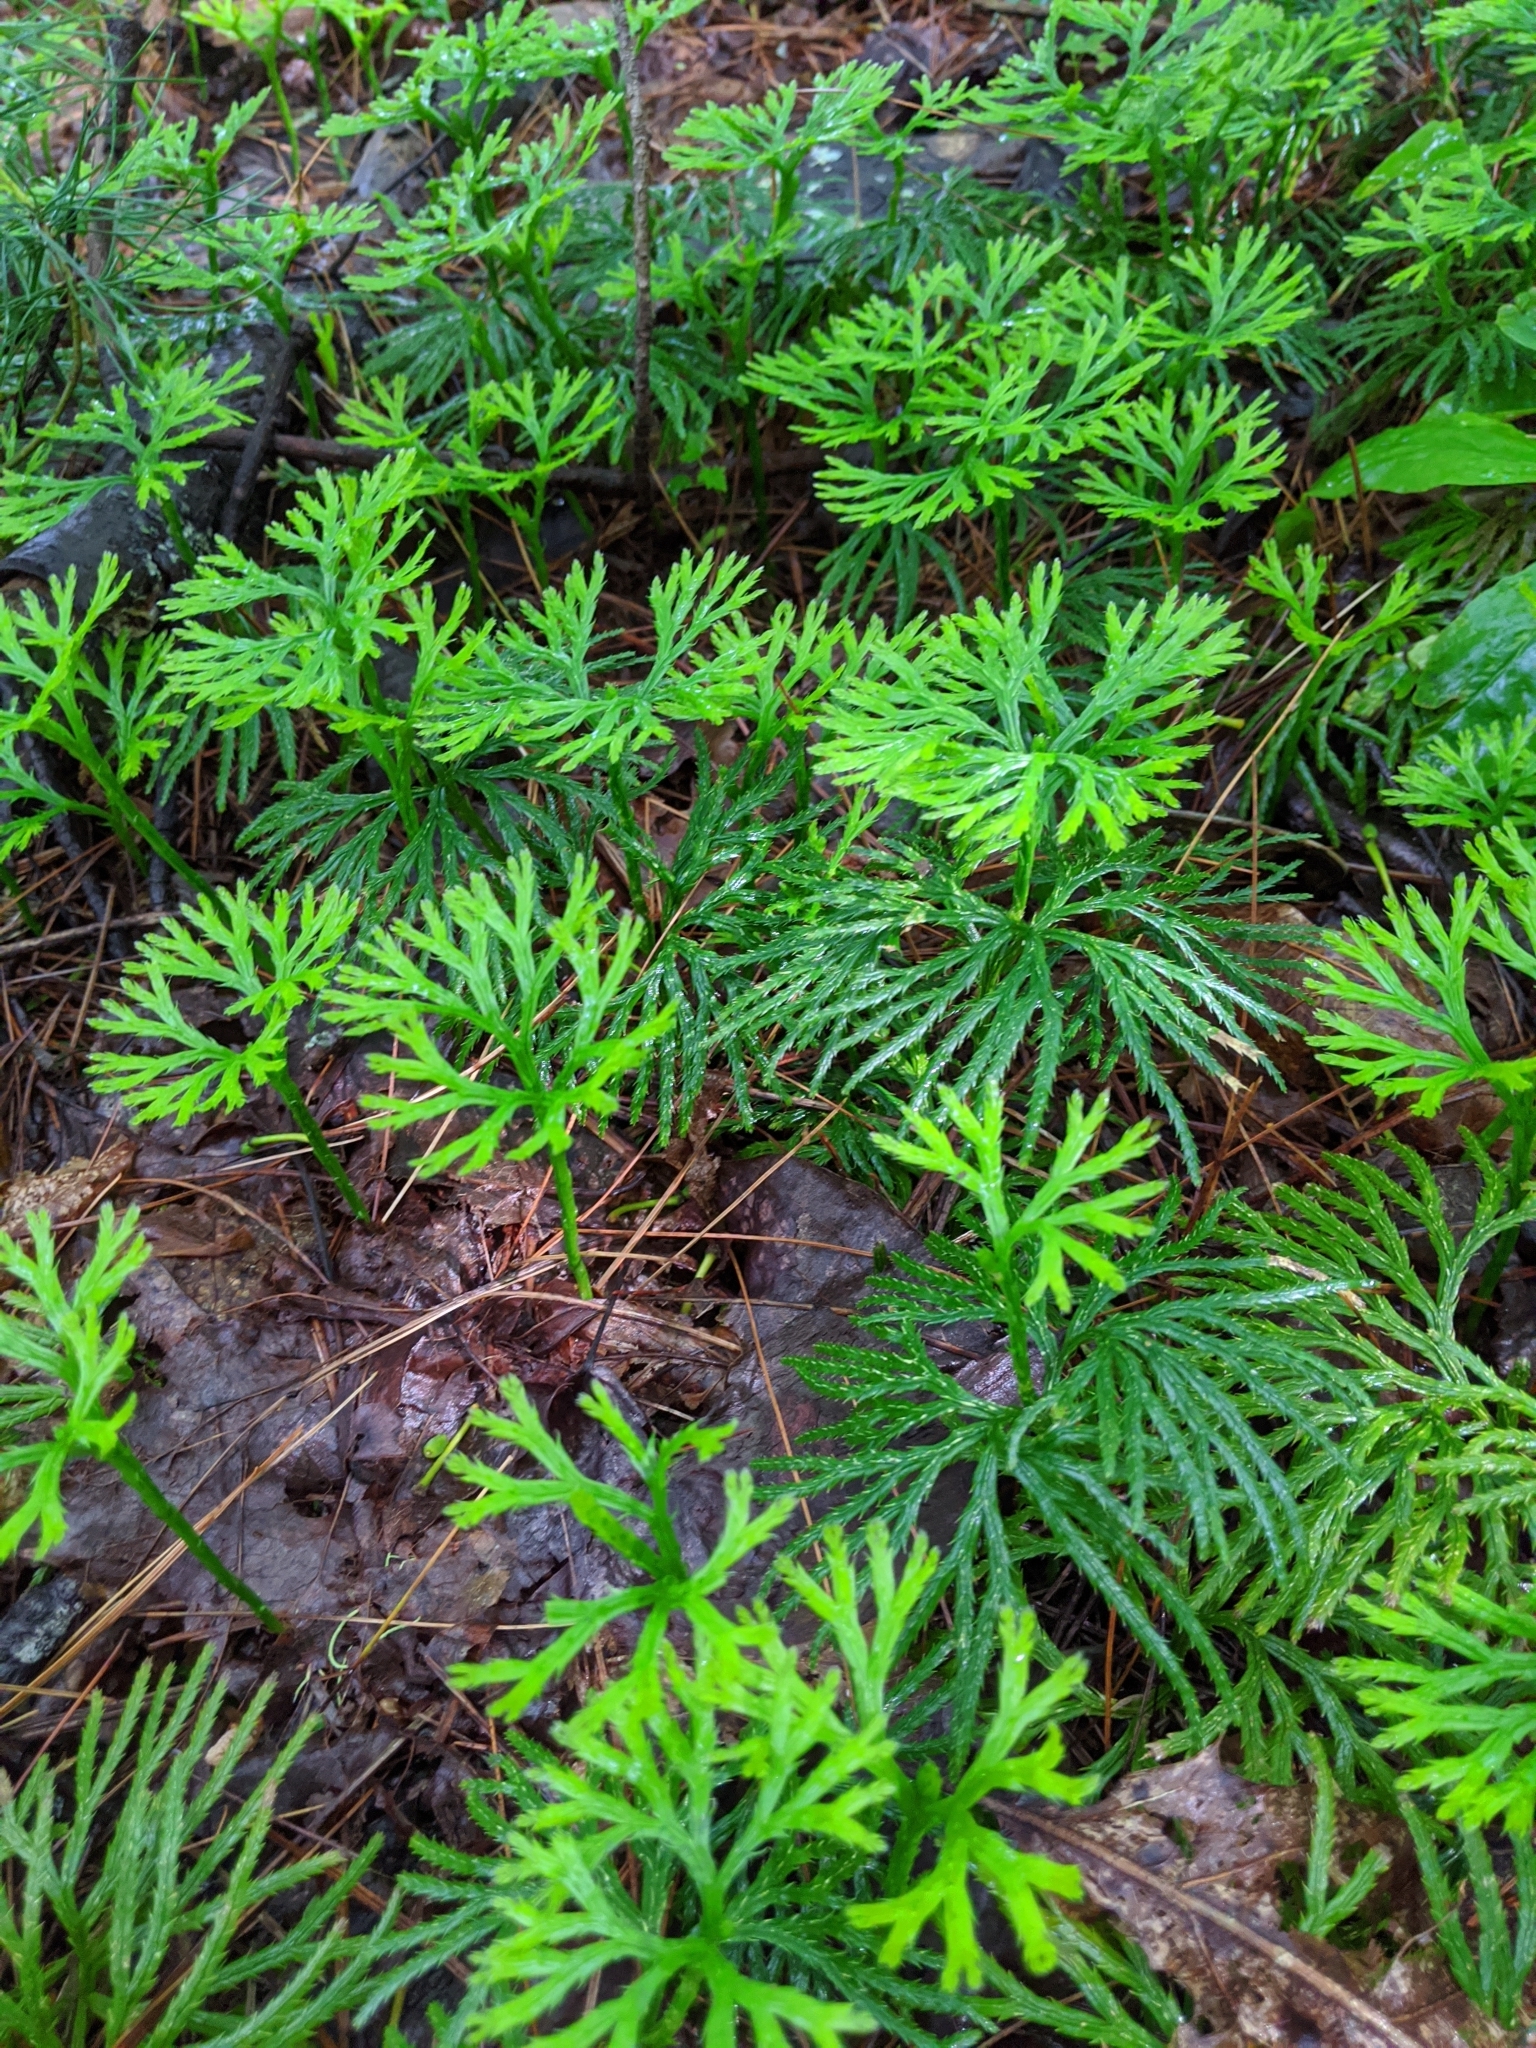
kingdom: Plantae
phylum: Tracheophyta
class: Lycopodiopsida
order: Lycopodiales
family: Lycopodiaceae
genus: Diphasiastrum
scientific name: Diphasiastrum digitatum
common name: Southern running-pine
